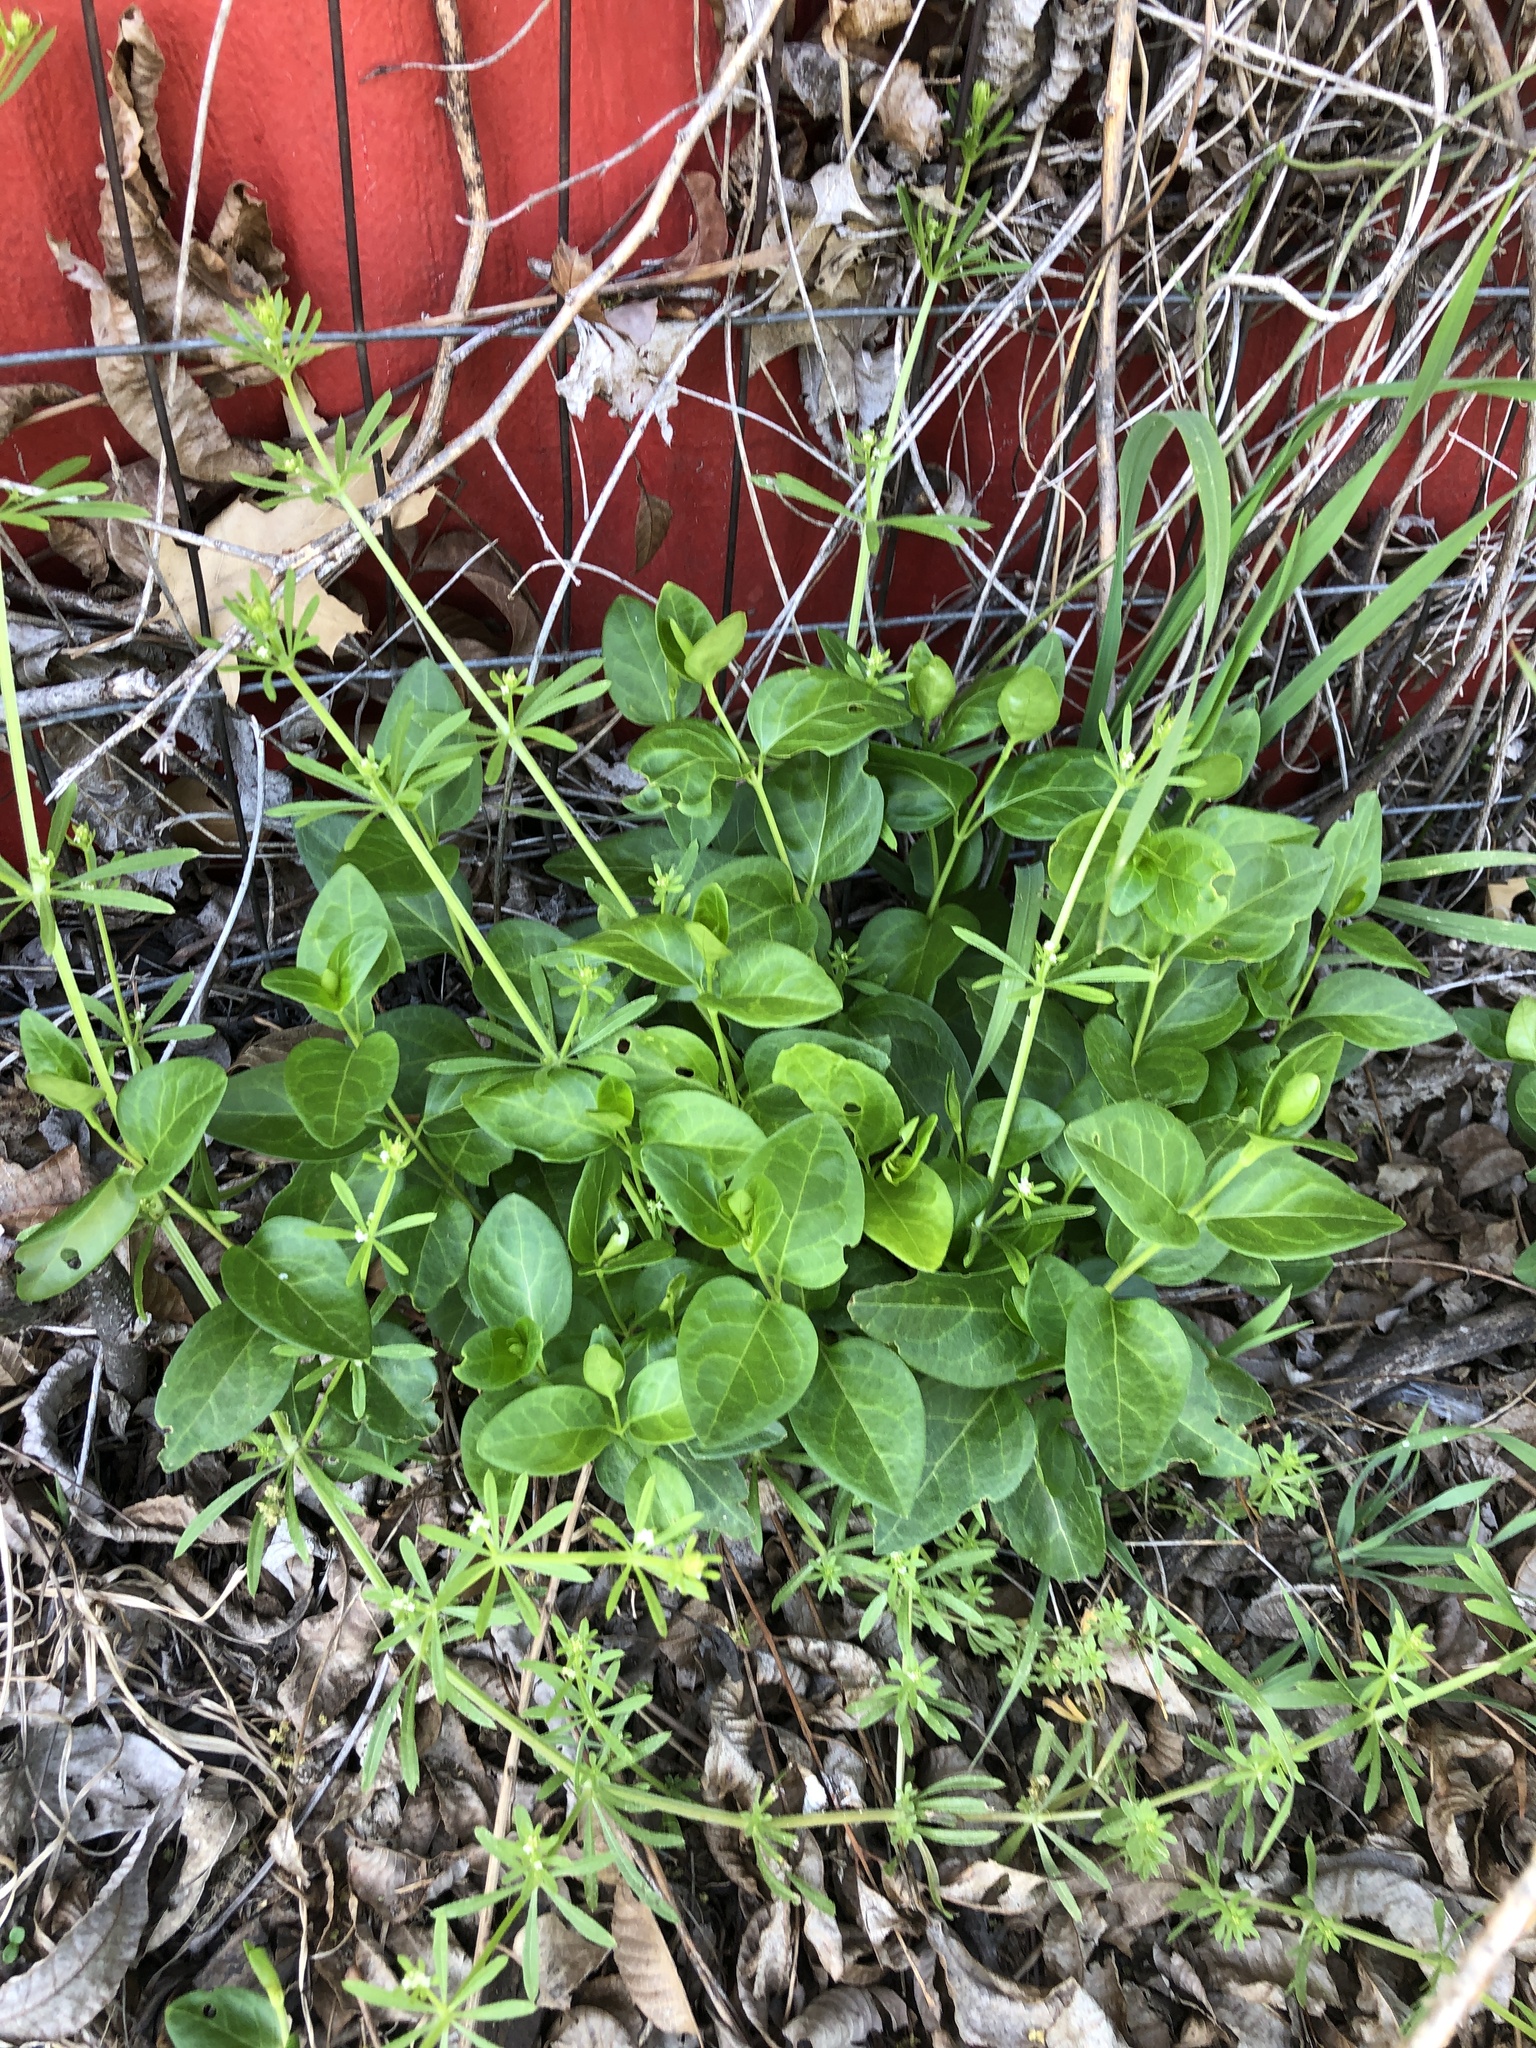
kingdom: Plantae
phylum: Tracheophyta
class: Magnoliopsida
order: Gentianales
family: Apocynaceae
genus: Vinca
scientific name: Vinca major
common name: Greater periwinkle
